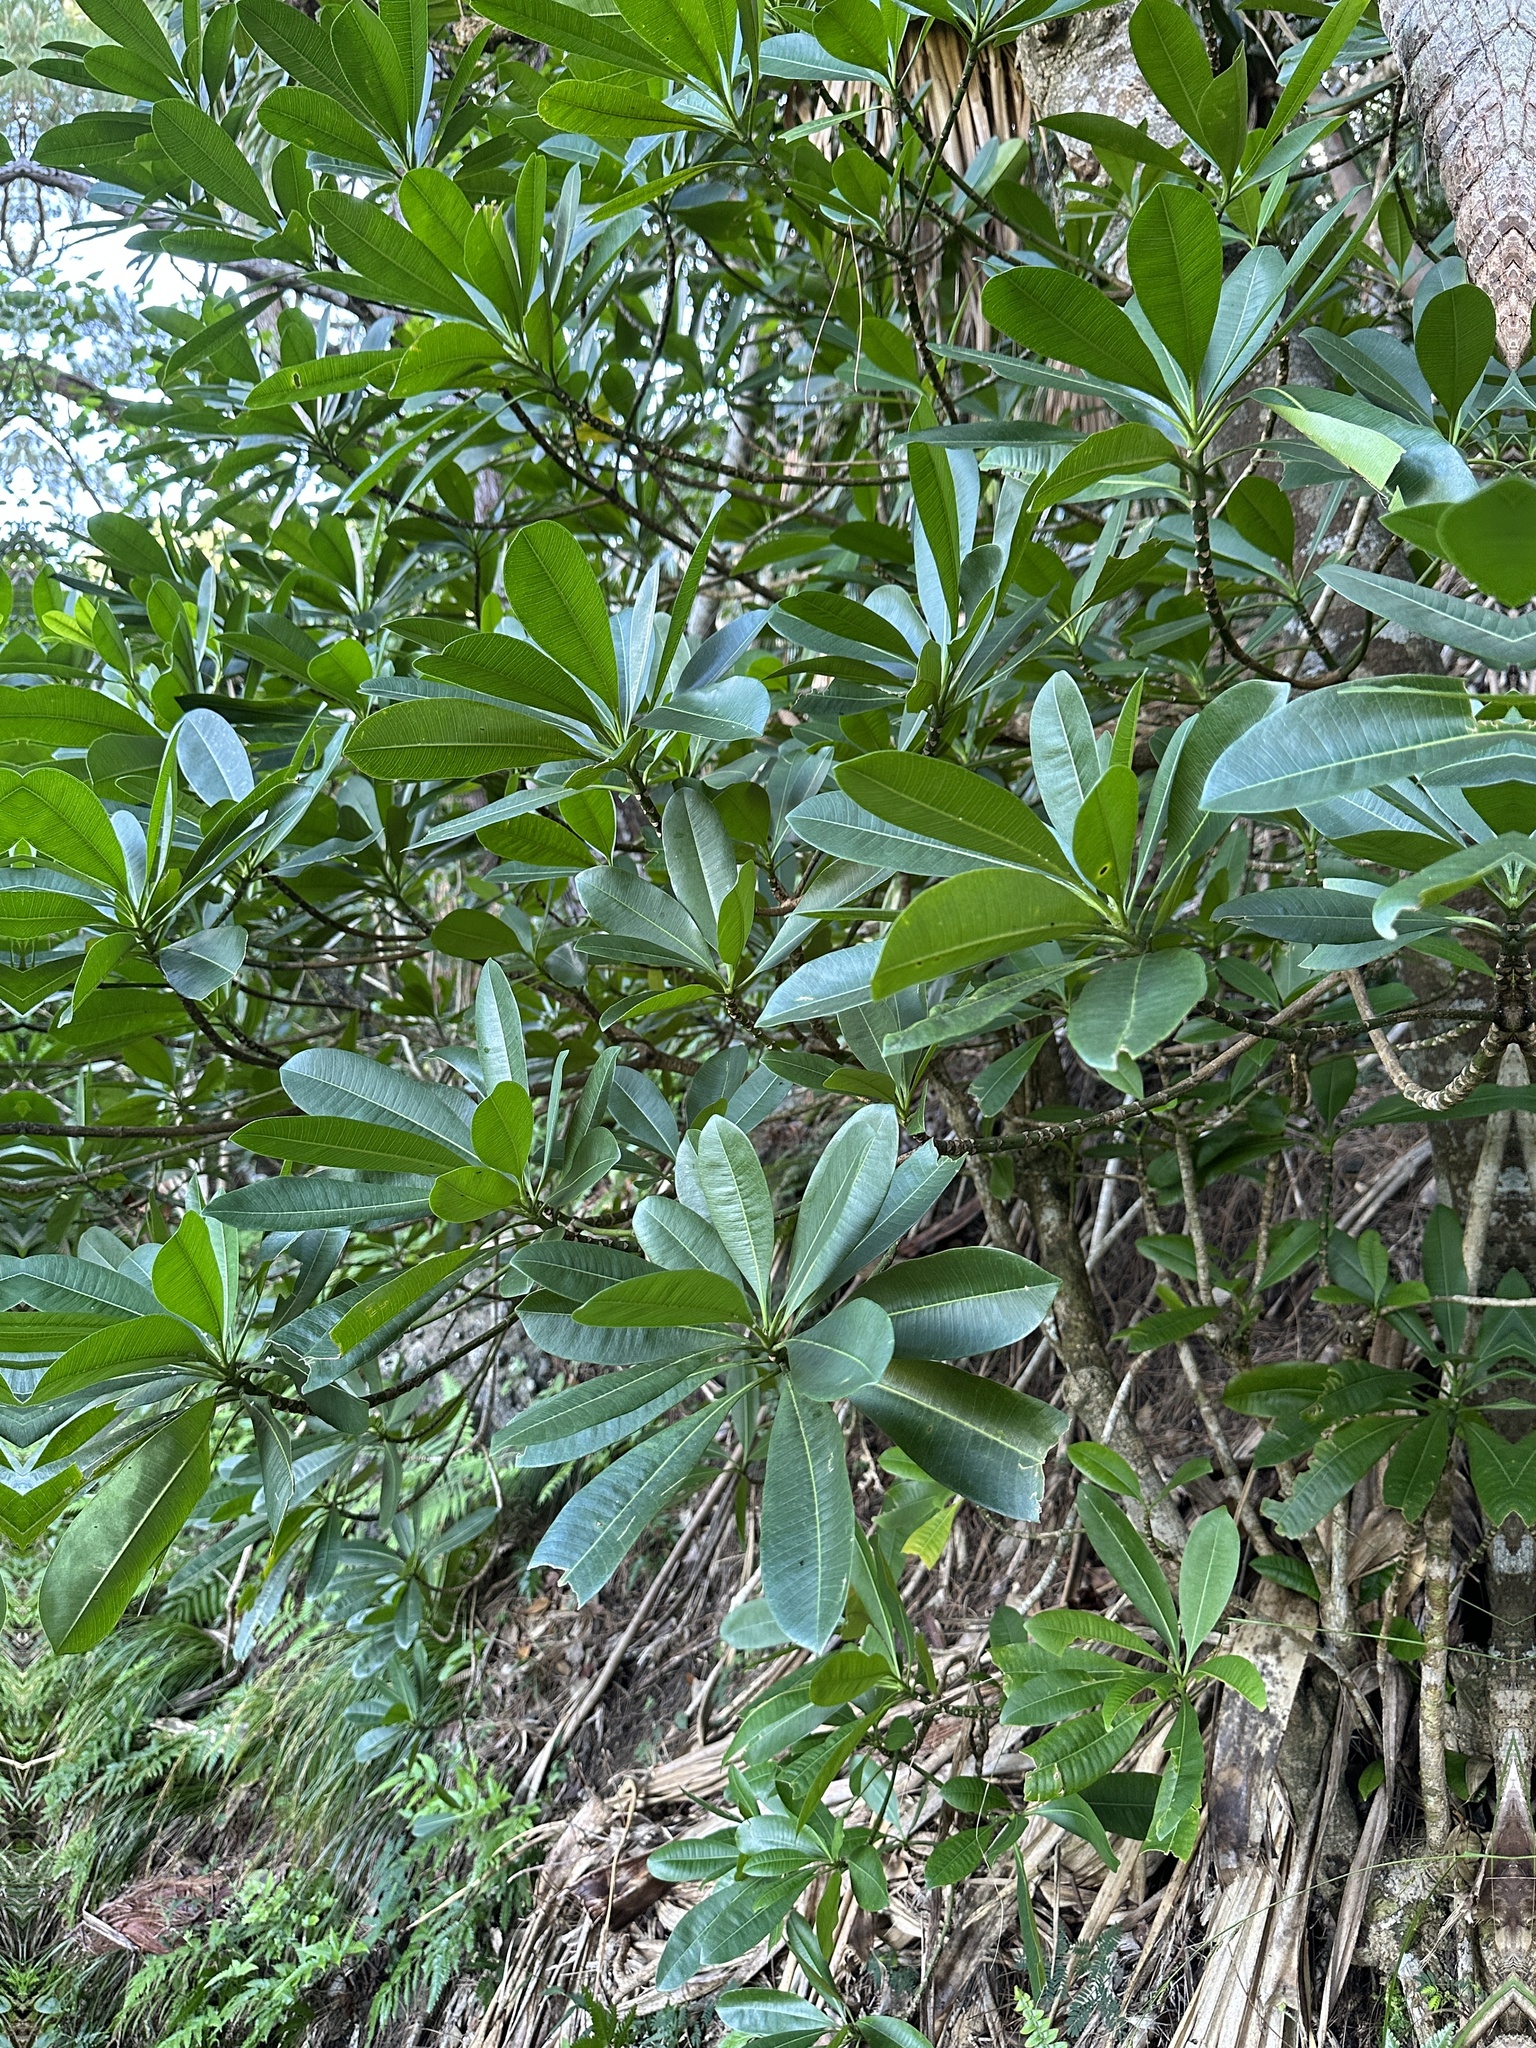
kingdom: Plantae
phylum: Tracheophyta
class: Magnoliopsida
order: Gentianales
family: Apocynaceae
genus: Ochrosia
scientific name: Ochrosia nakaiana
